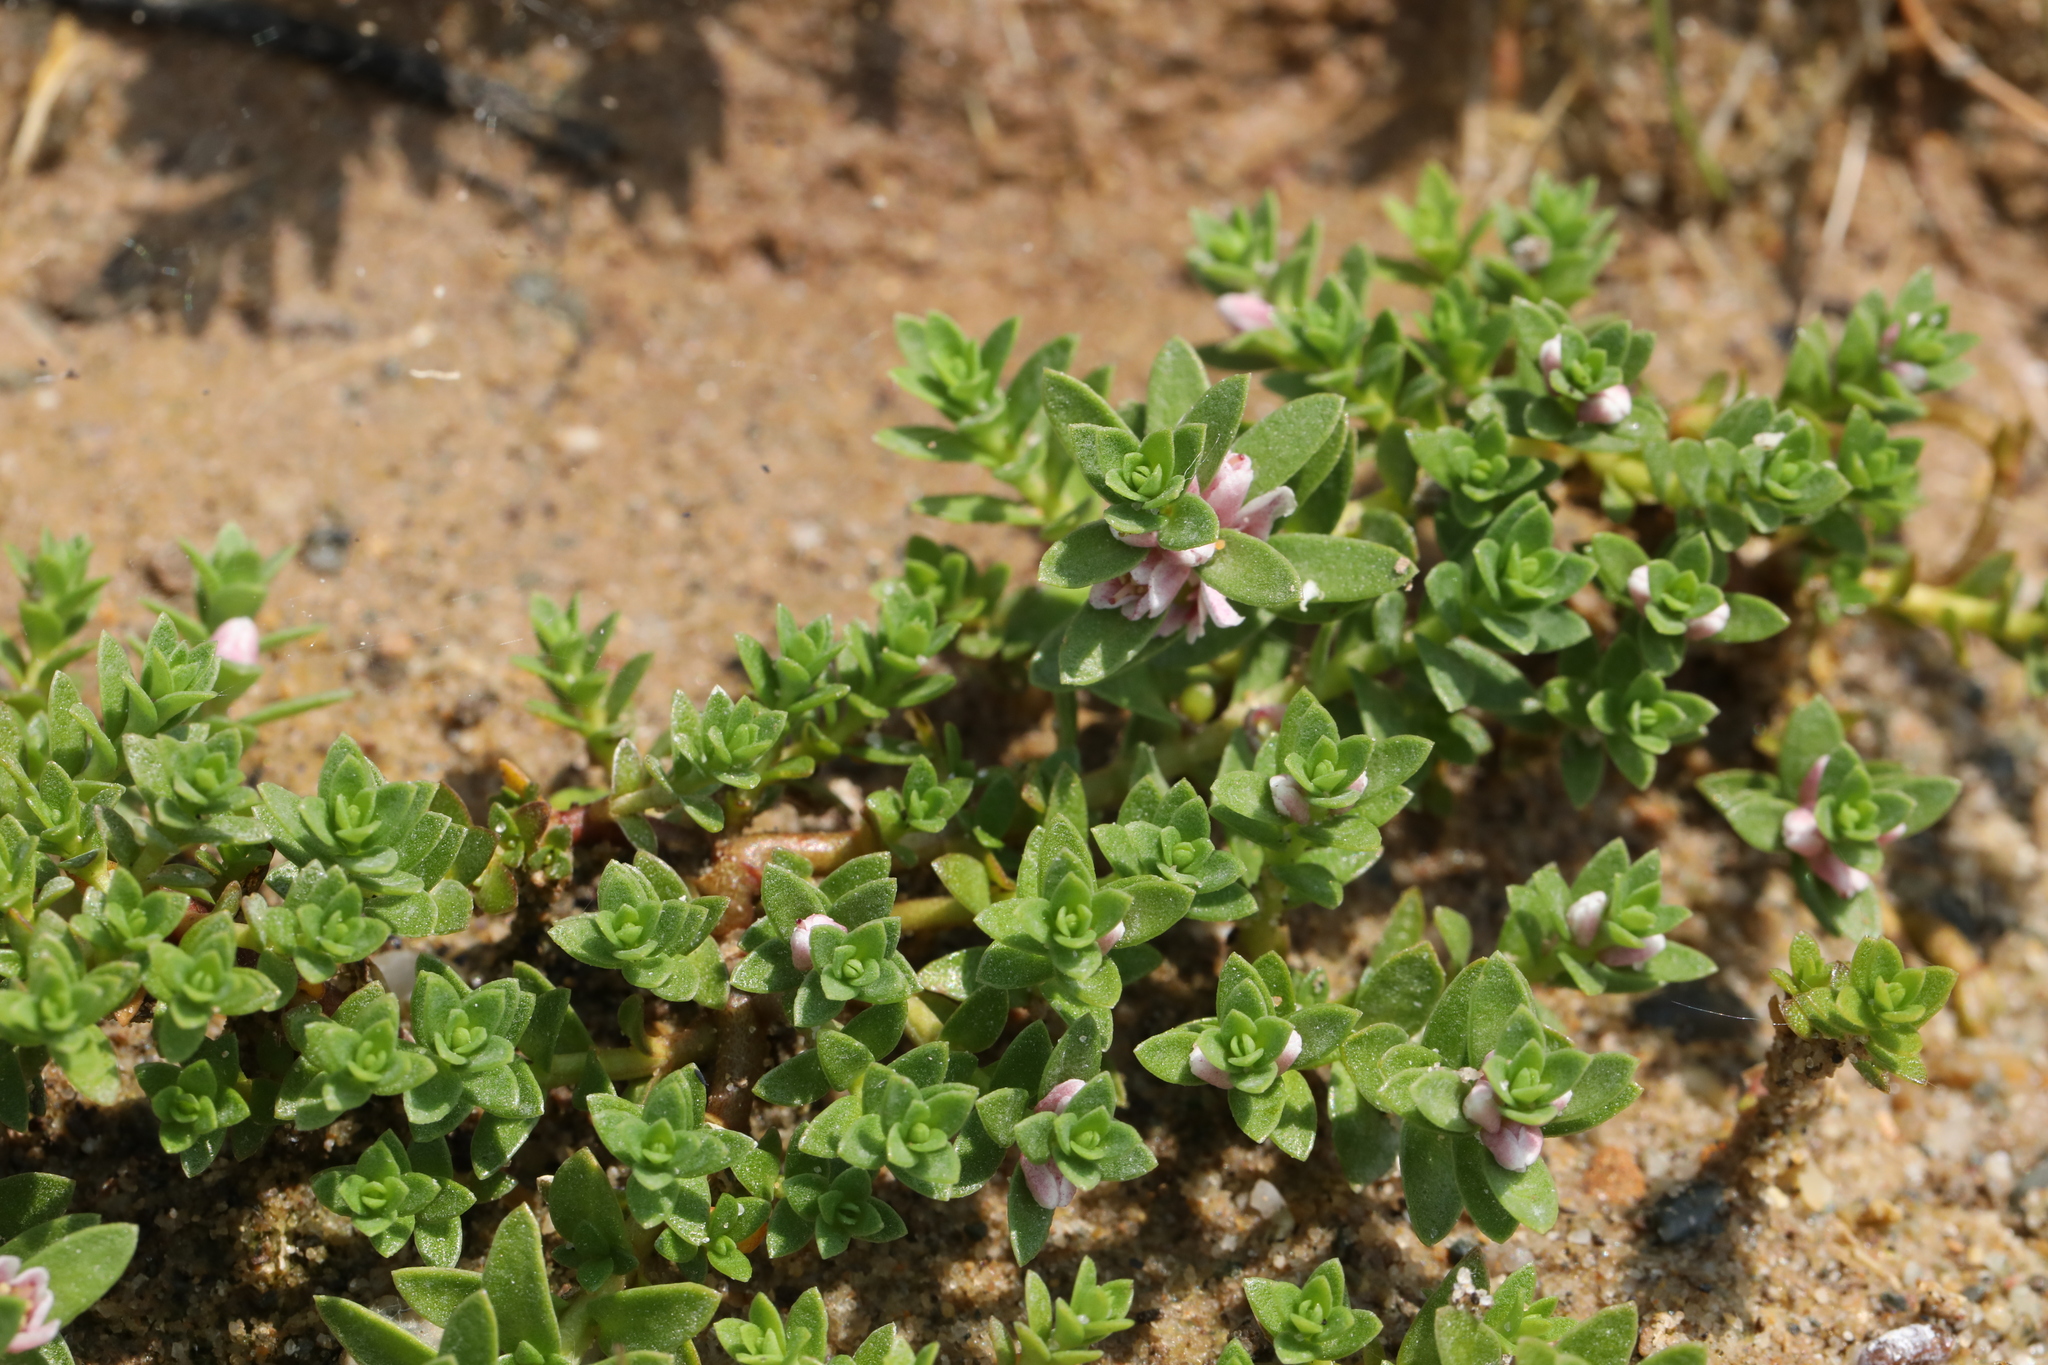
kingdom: Plantae
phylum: Tracheophyta
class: Magnoliopsida
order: Ericales
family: Primulaceae
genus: Lysimachia
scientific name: Lysimachia maritima
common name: Sea milkwort
